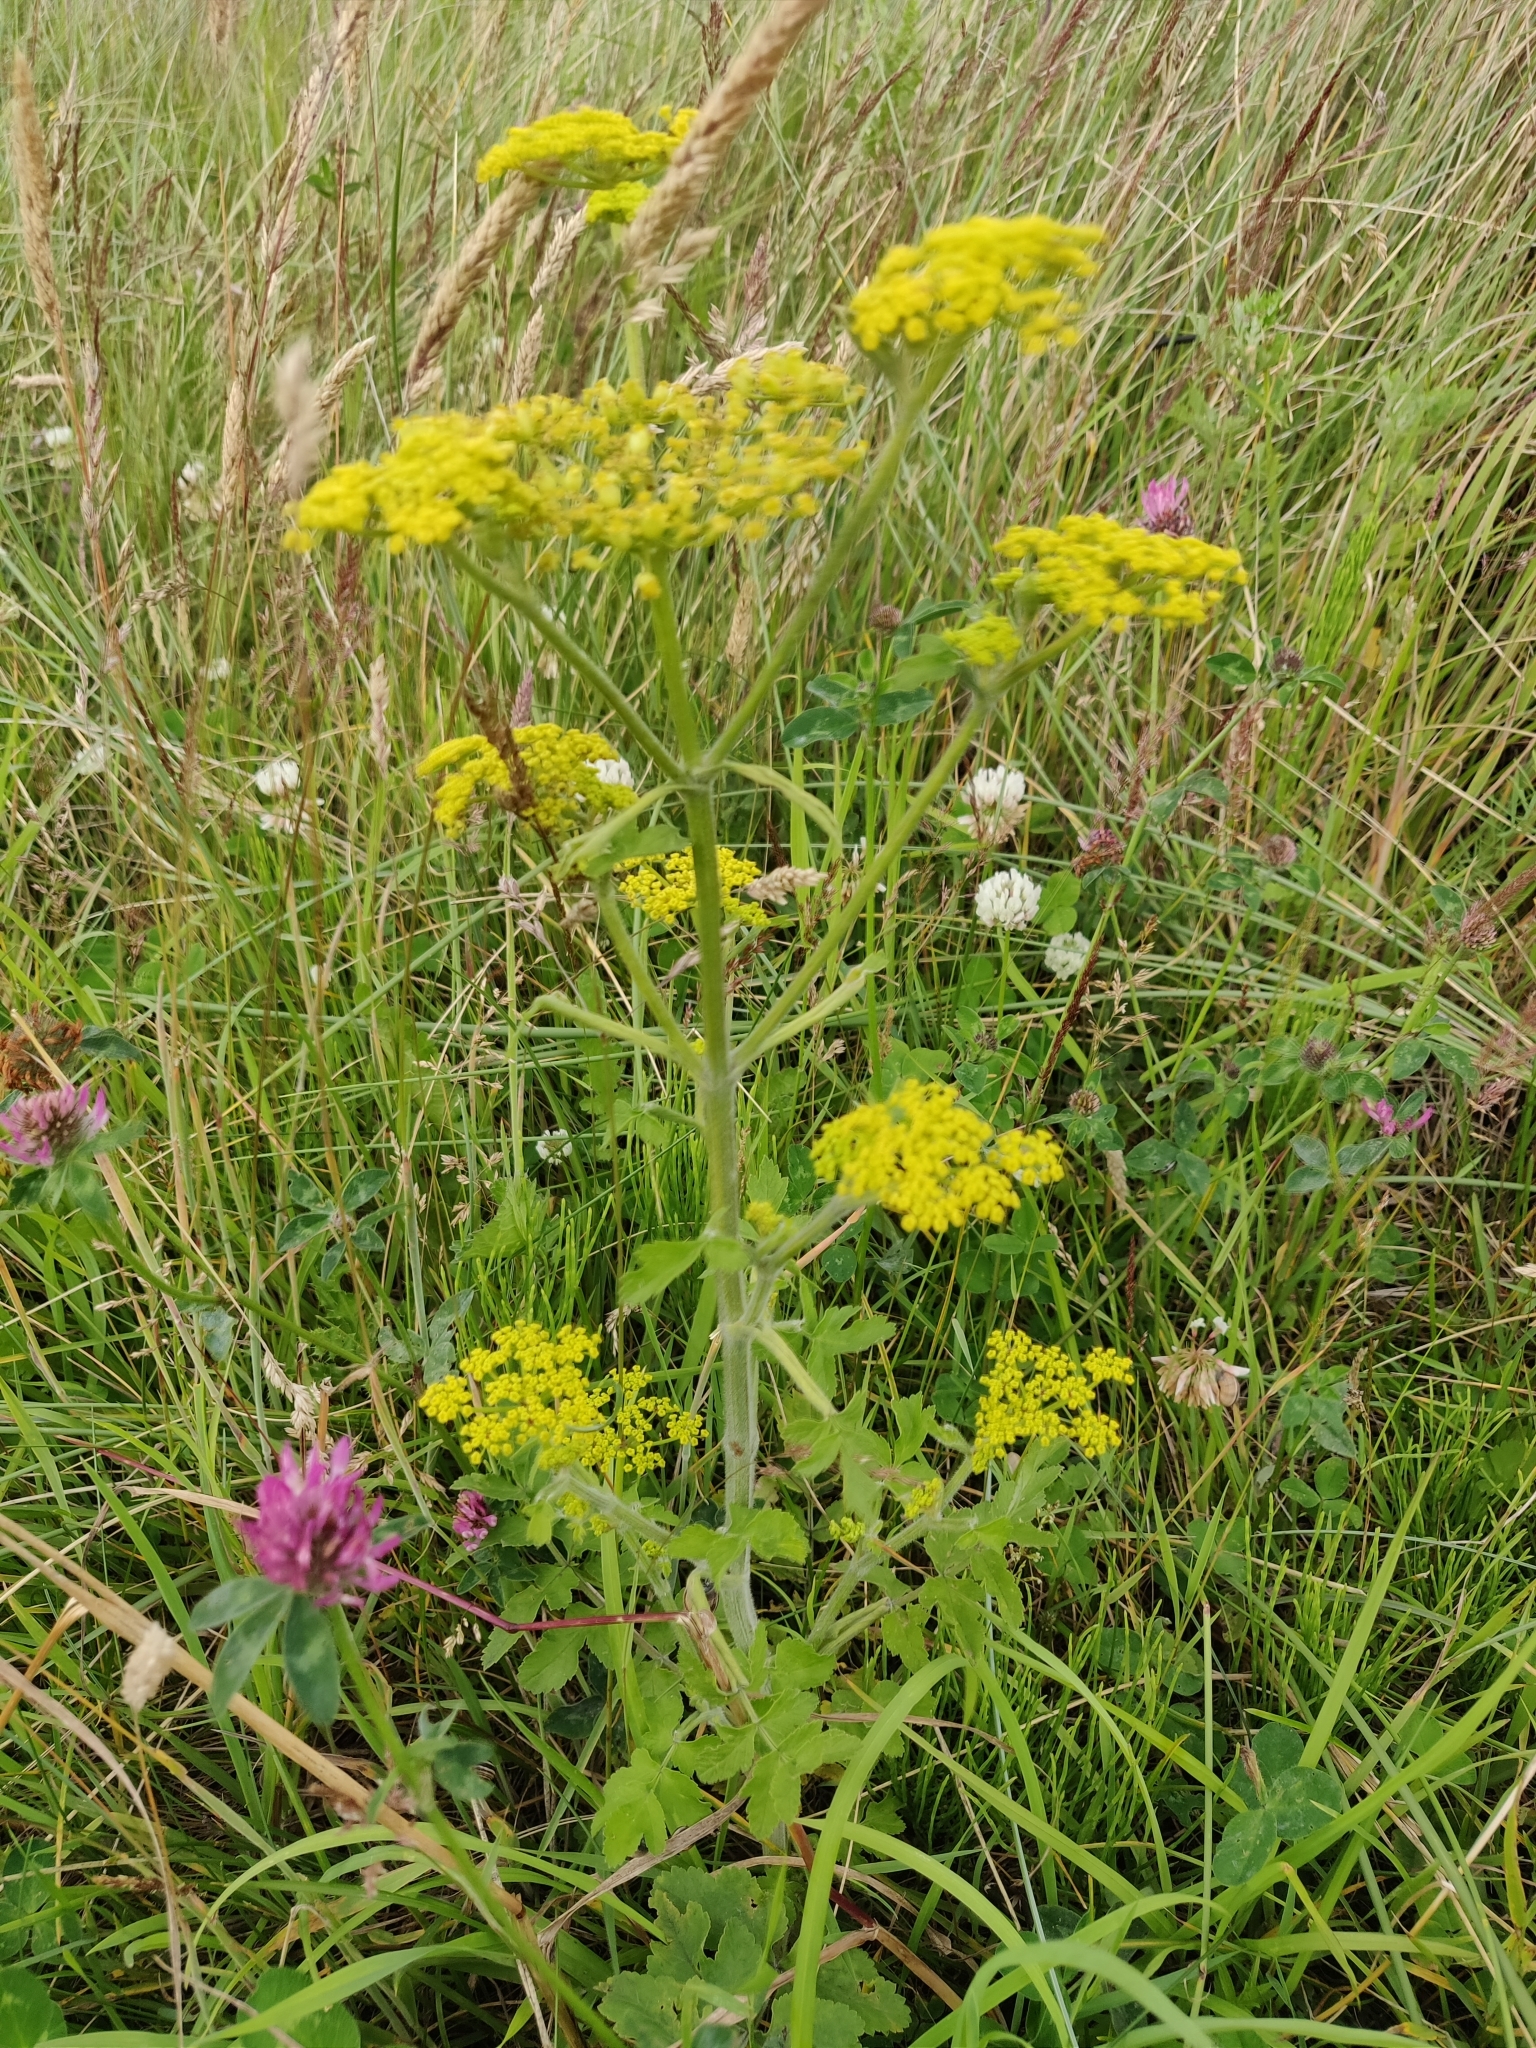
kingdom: Plantae
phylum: Tracheophyta
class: Magnoliopsida
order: Apiales
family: Apiaceae
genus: Pastinaca
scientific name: Pastinaca sativa
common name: Wild parsnip
